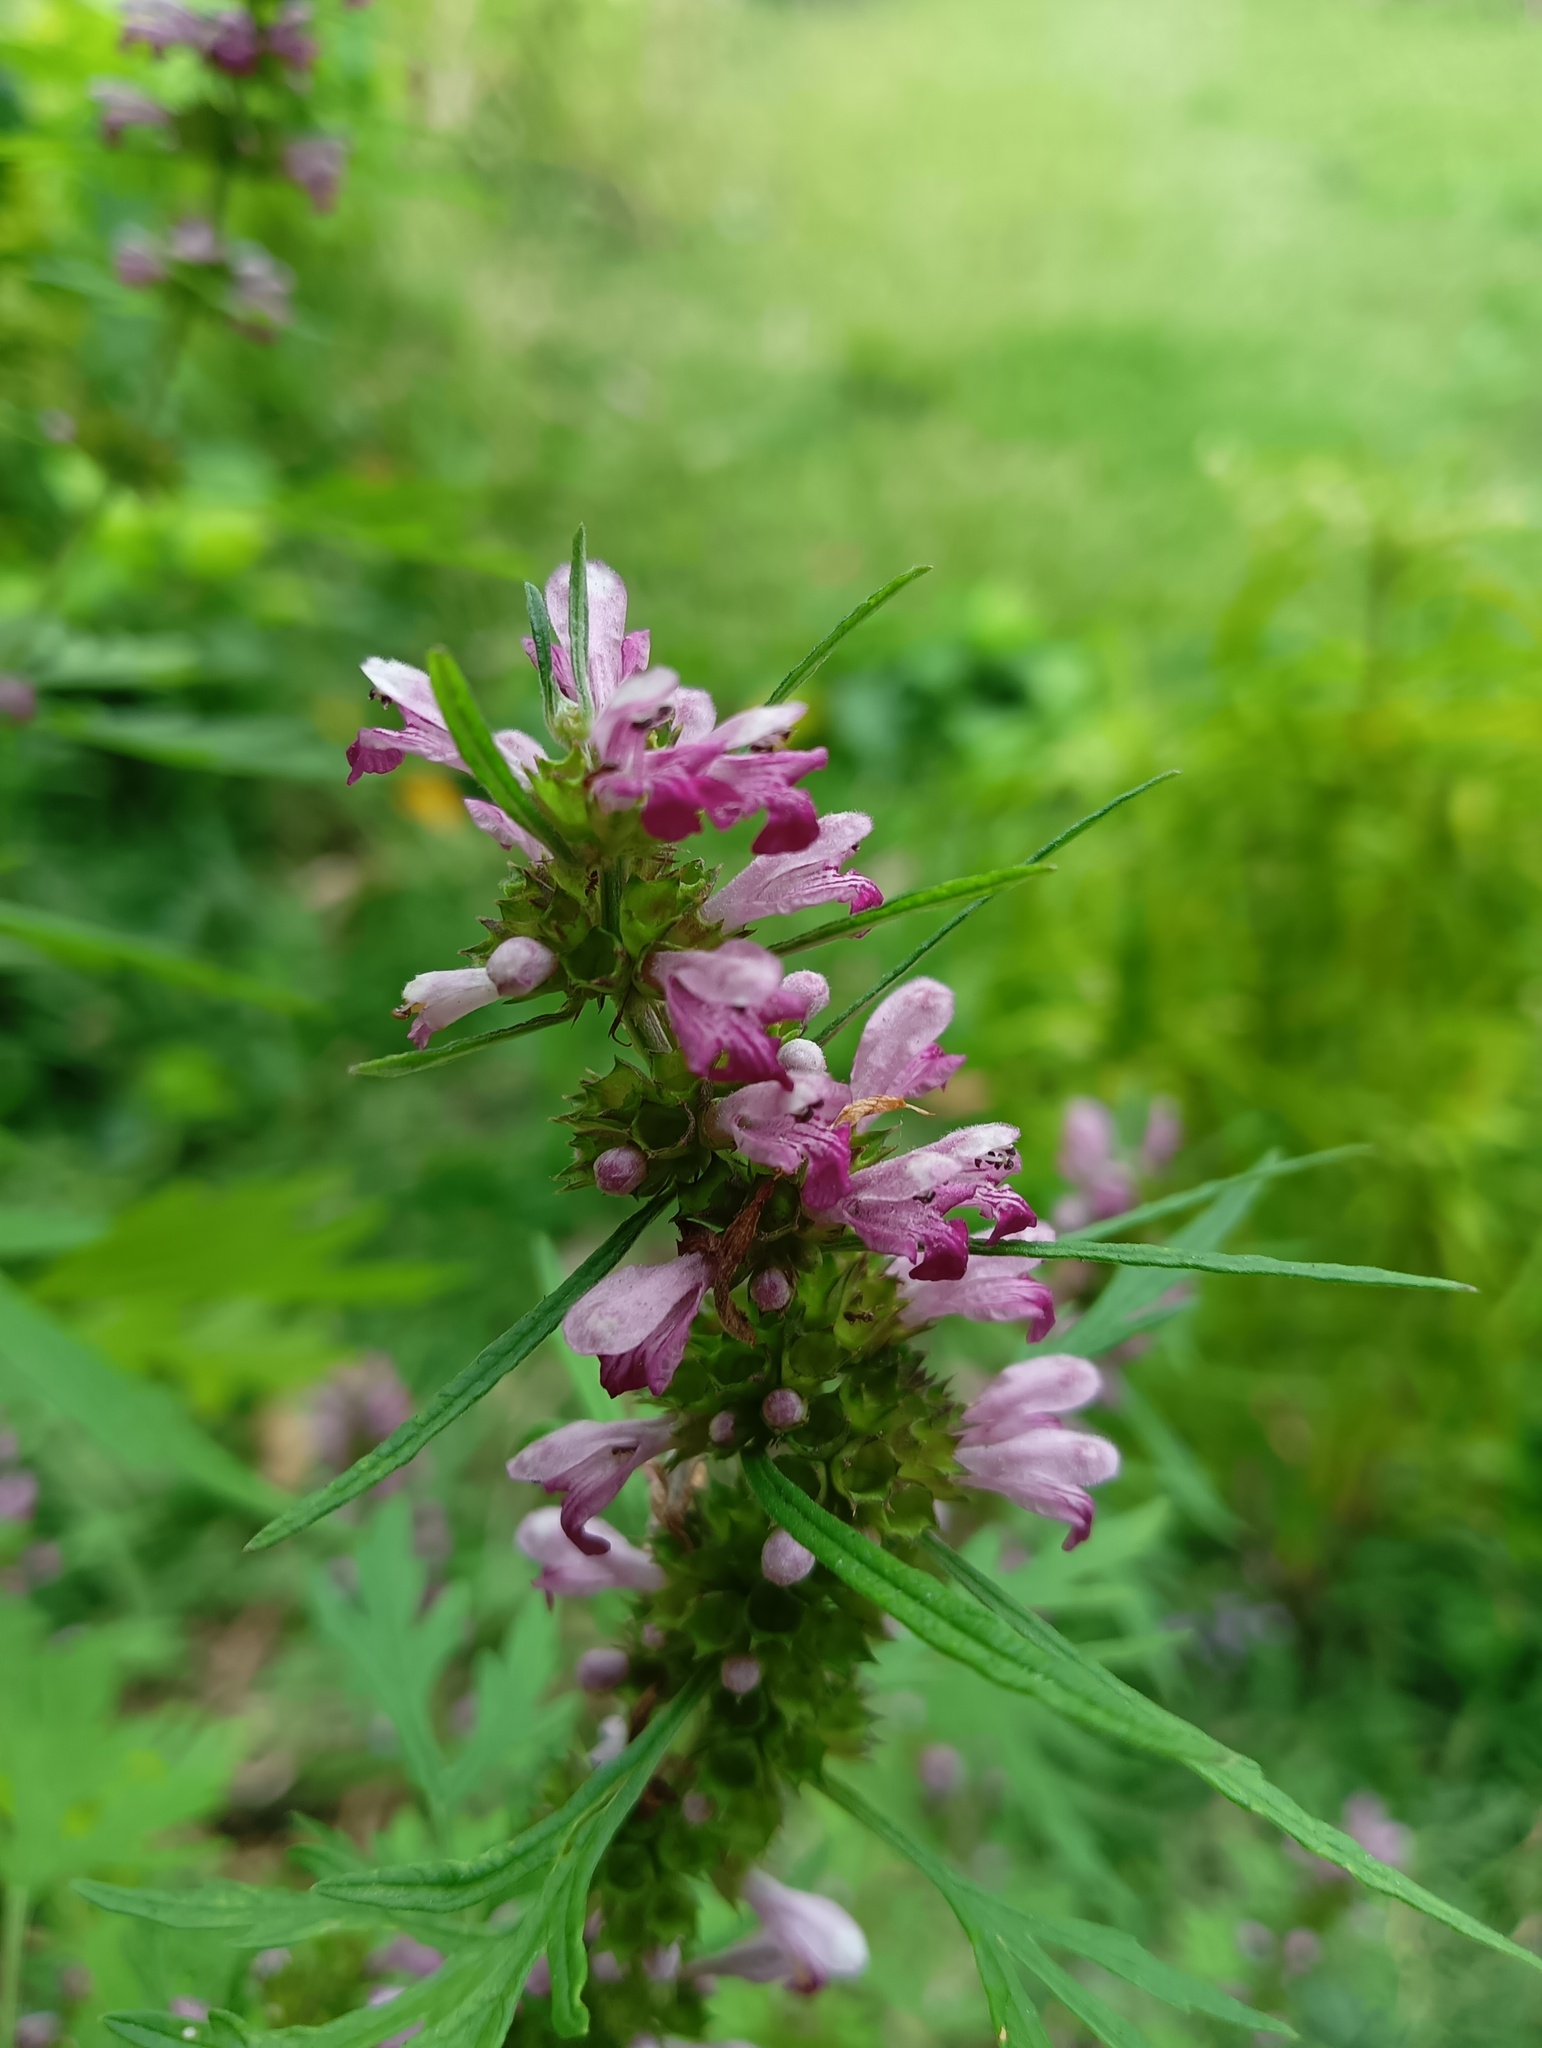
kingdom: Plantae
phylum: Tracheophyta
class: Magnoliopsida
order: Lamiales
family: Lamiaceae
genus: Leonurus
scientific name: Leonurus japonicus
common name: Honeyweed
